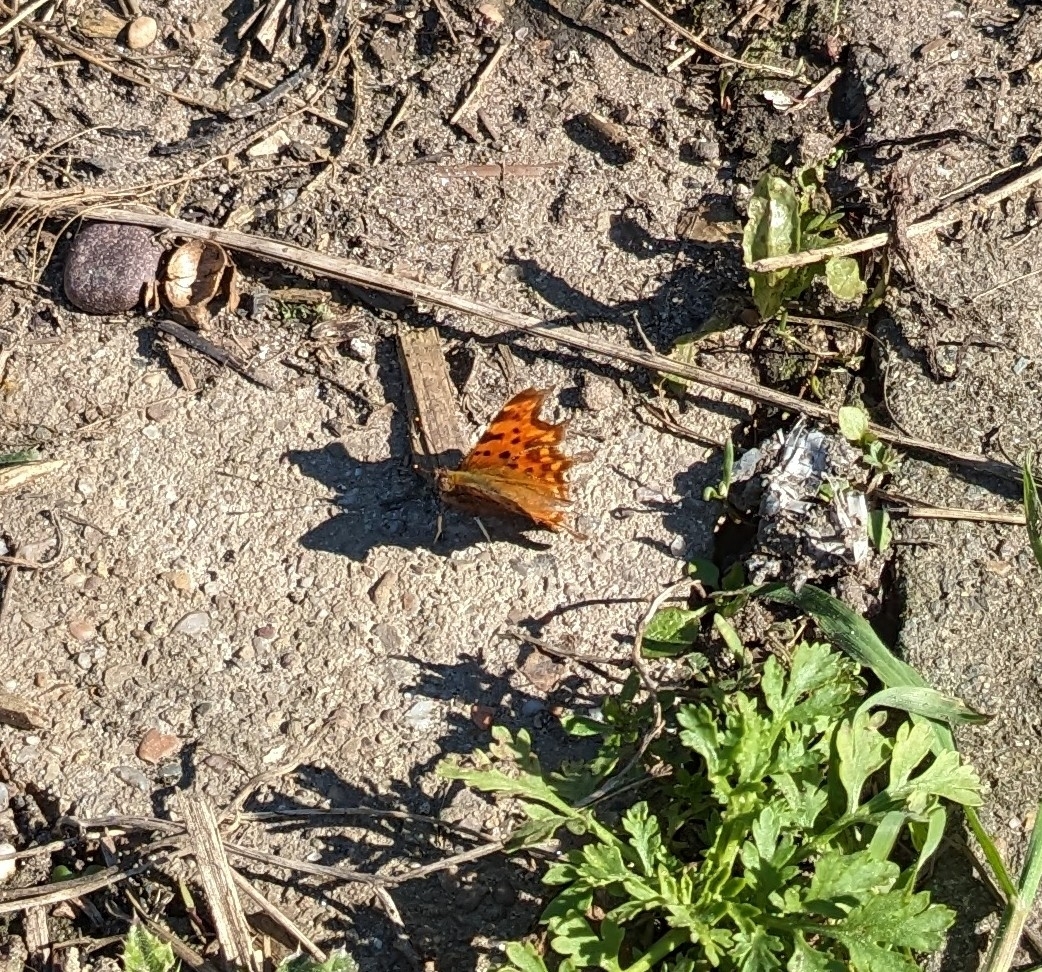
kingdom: Animalia
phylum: Arthropoda
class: Insecta
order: Lepidoptera
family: Nymphalidae
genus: Polygonia
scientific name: Polygonia c-album
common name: Comma
